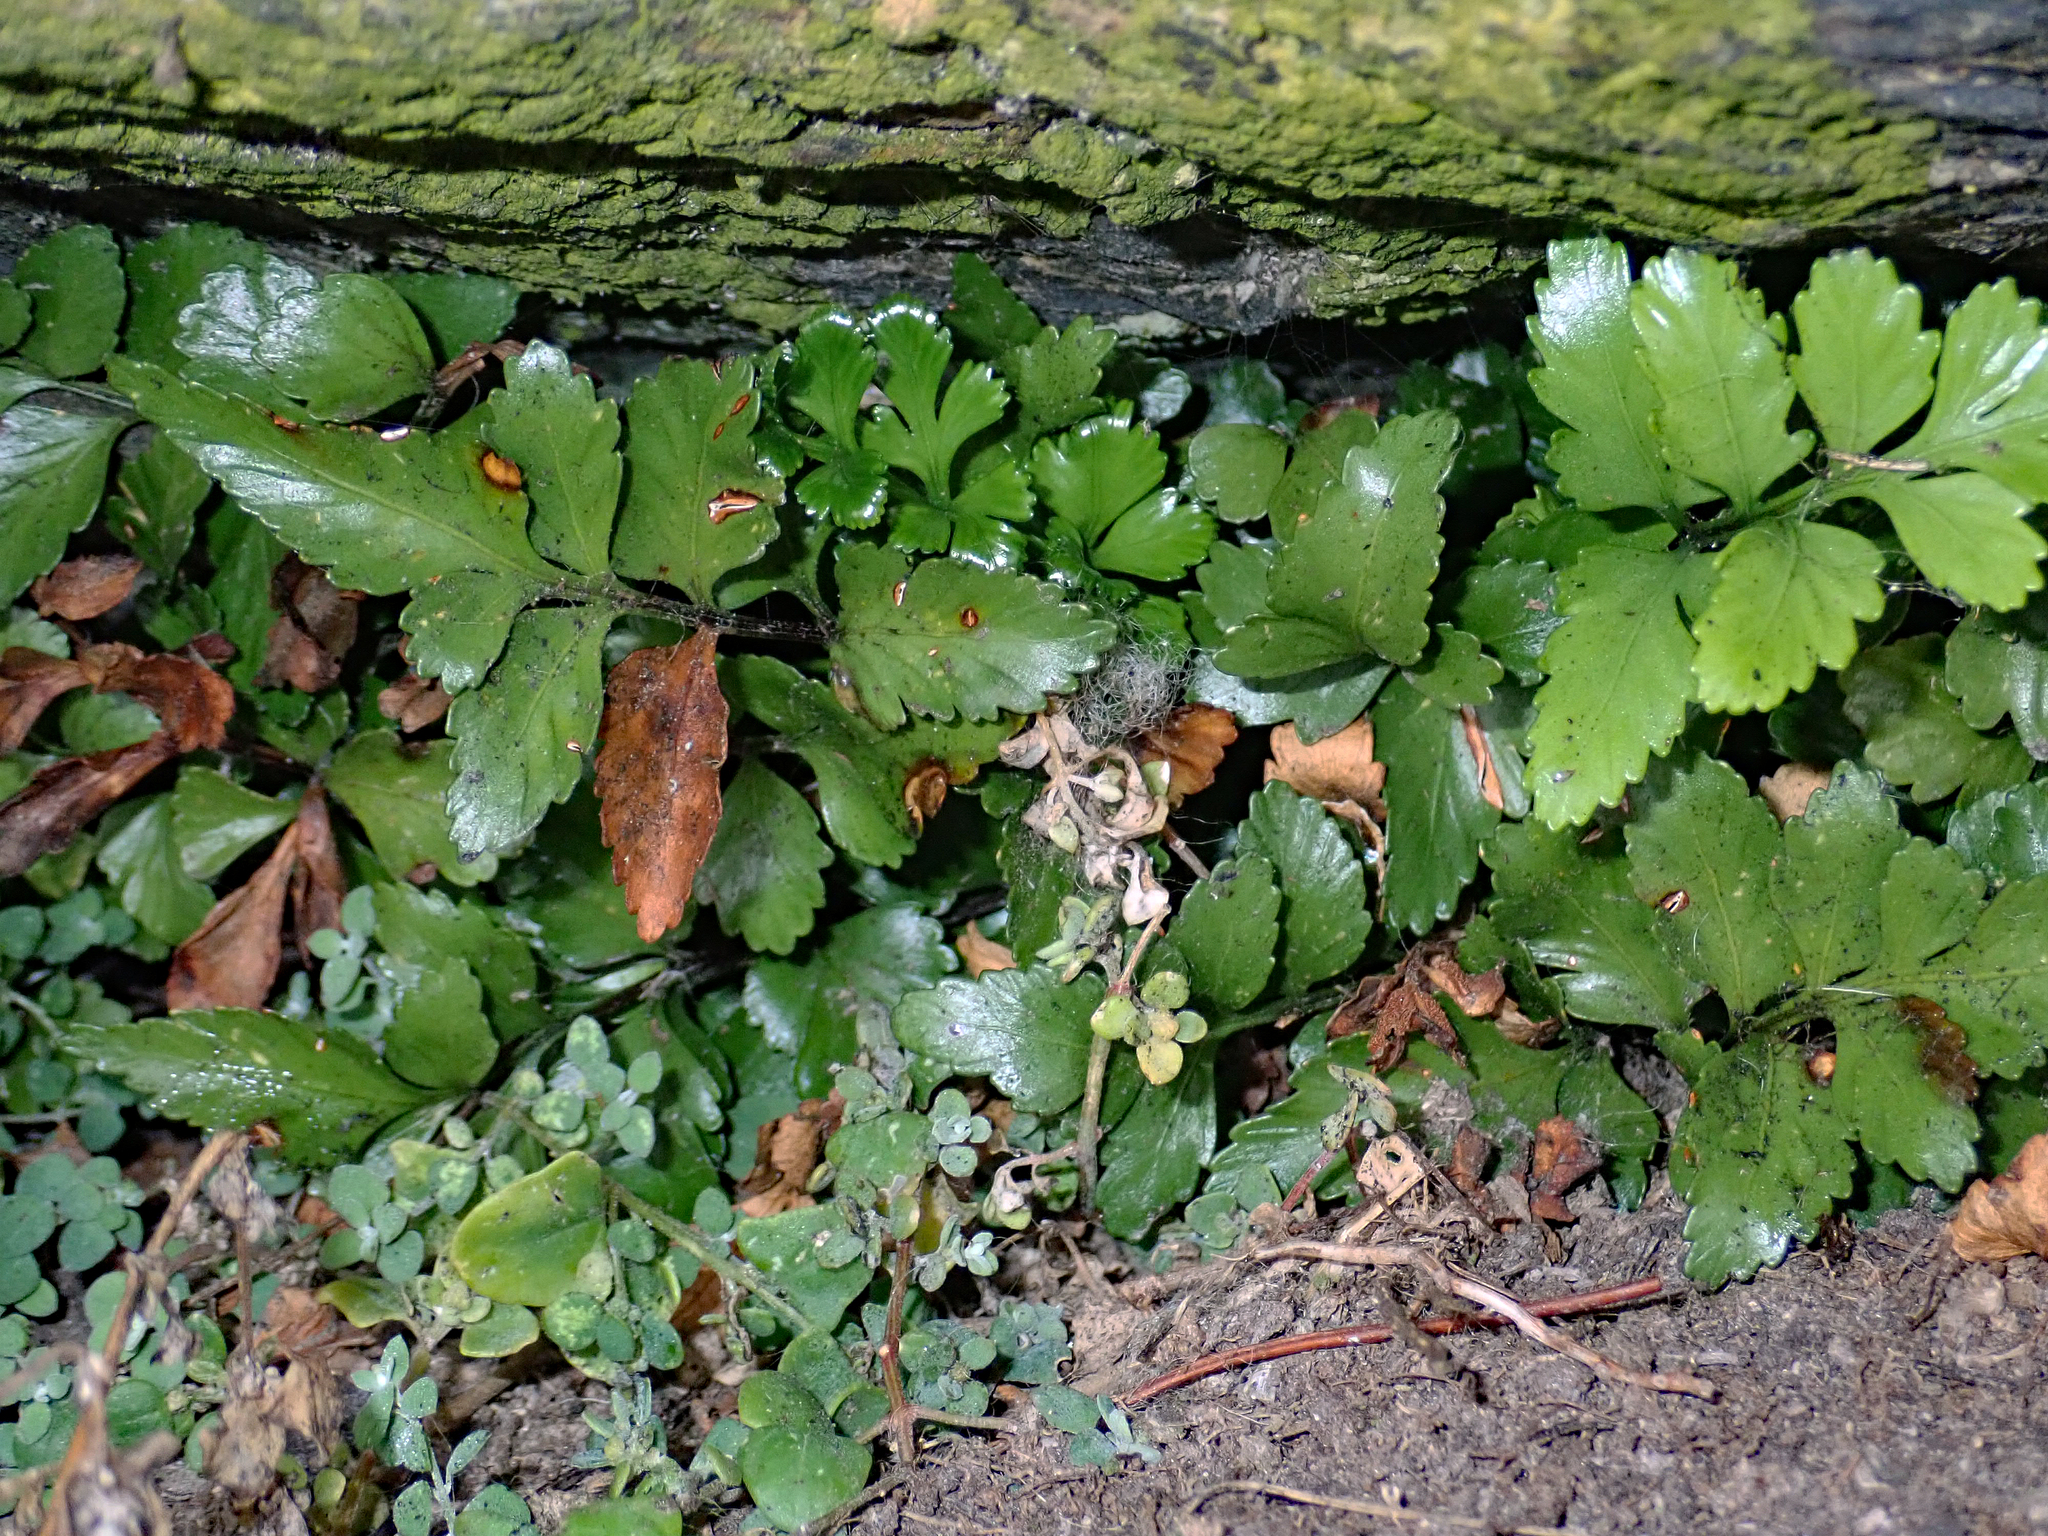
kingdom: Plantae
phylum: Tracheophyta
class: Polypodiopsida
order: Polypodiales
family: Aspleniaceae
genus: Asplenium
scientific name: Asplenium pauperequitum
